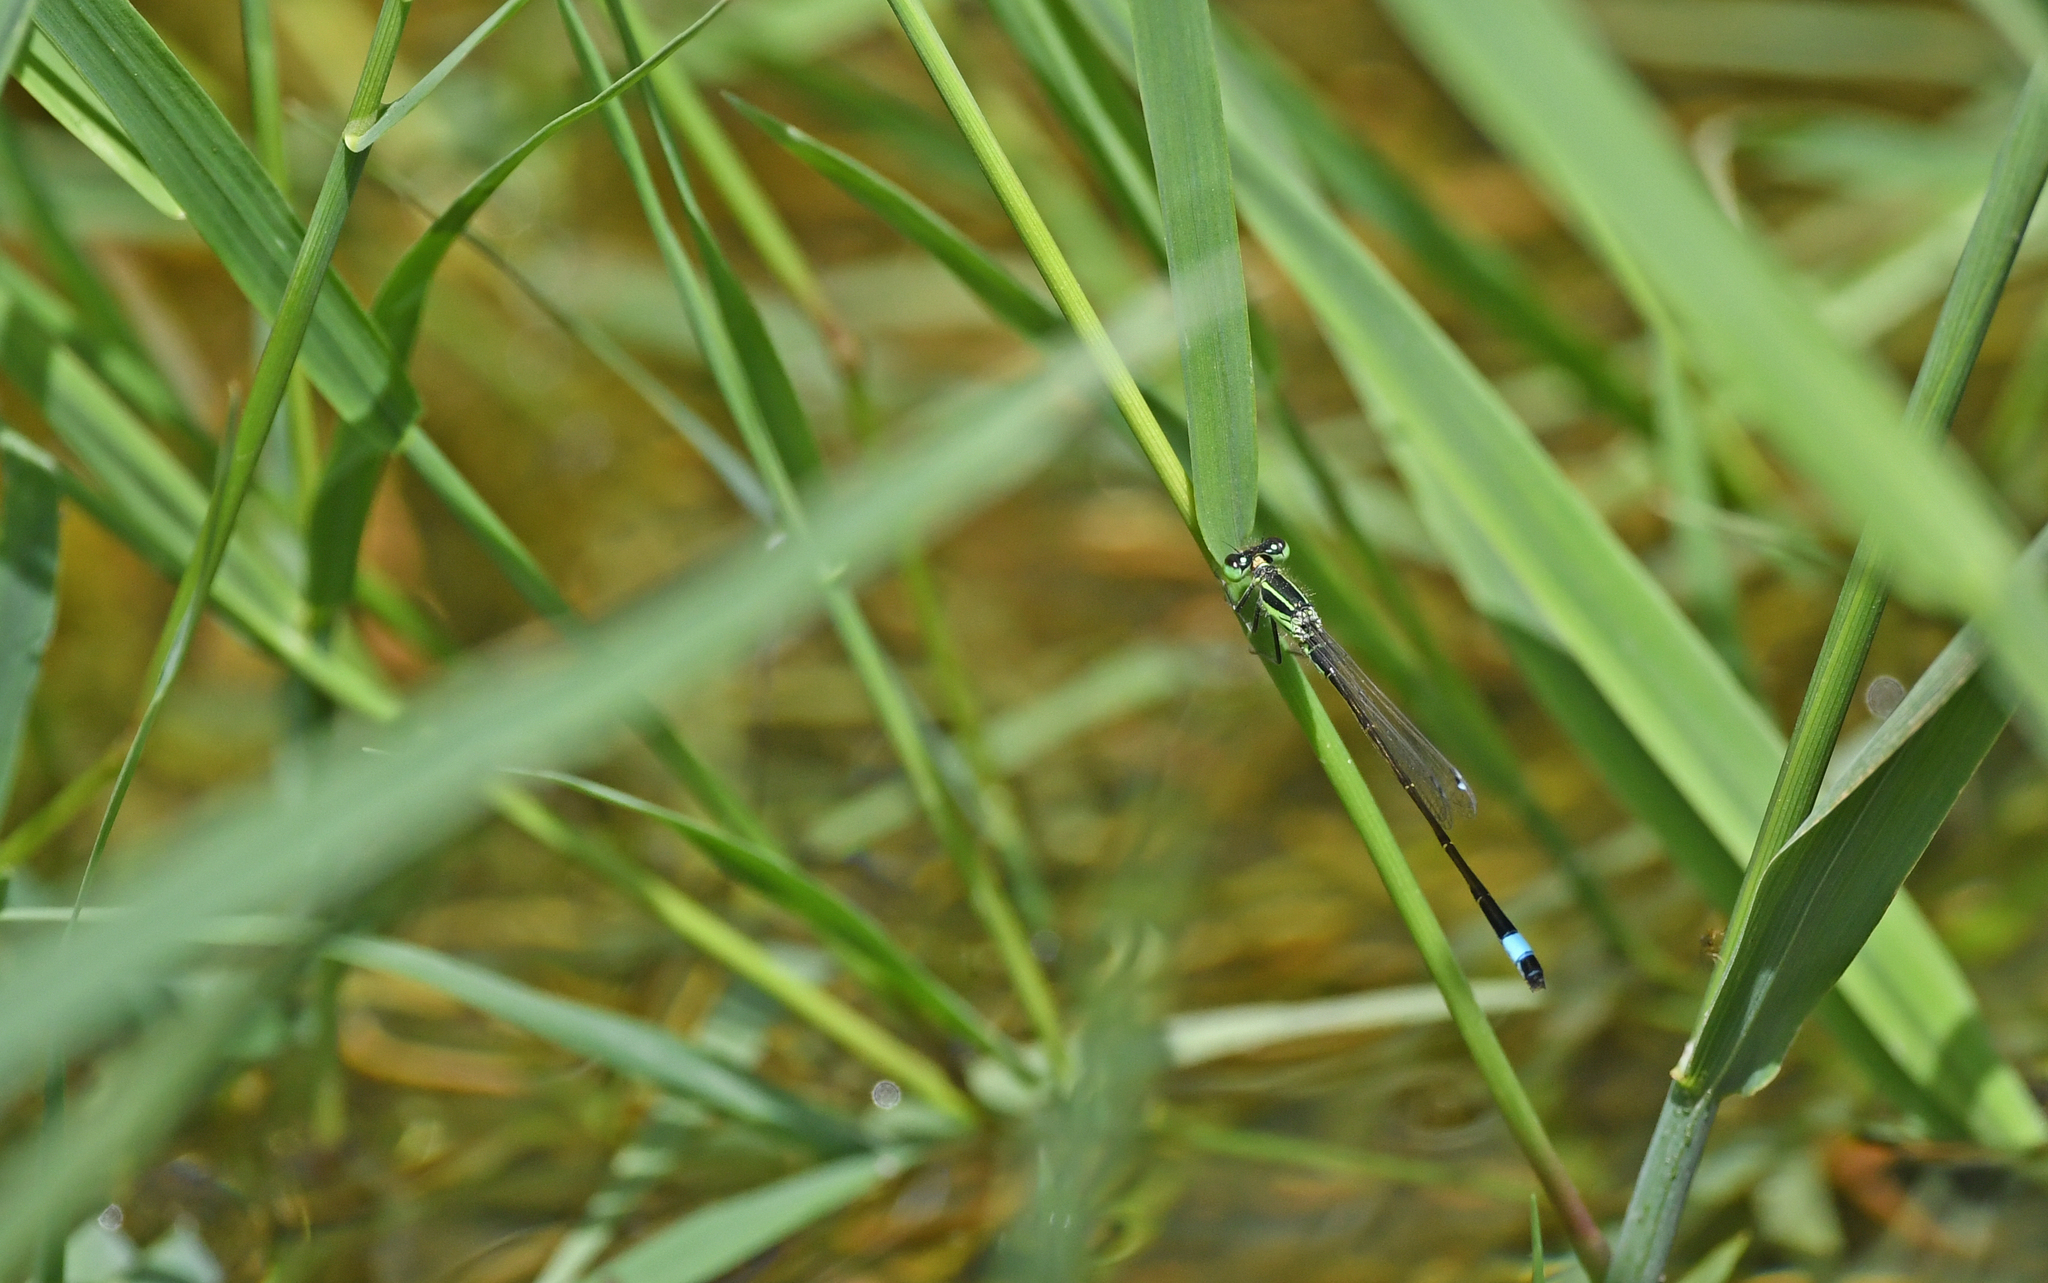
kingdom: Animalia
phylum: Arthropoda
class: Insecta
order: Odonata
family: Coenagrionidae
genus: Ischnura
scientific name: Ischnura genei
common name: Island bluetail
